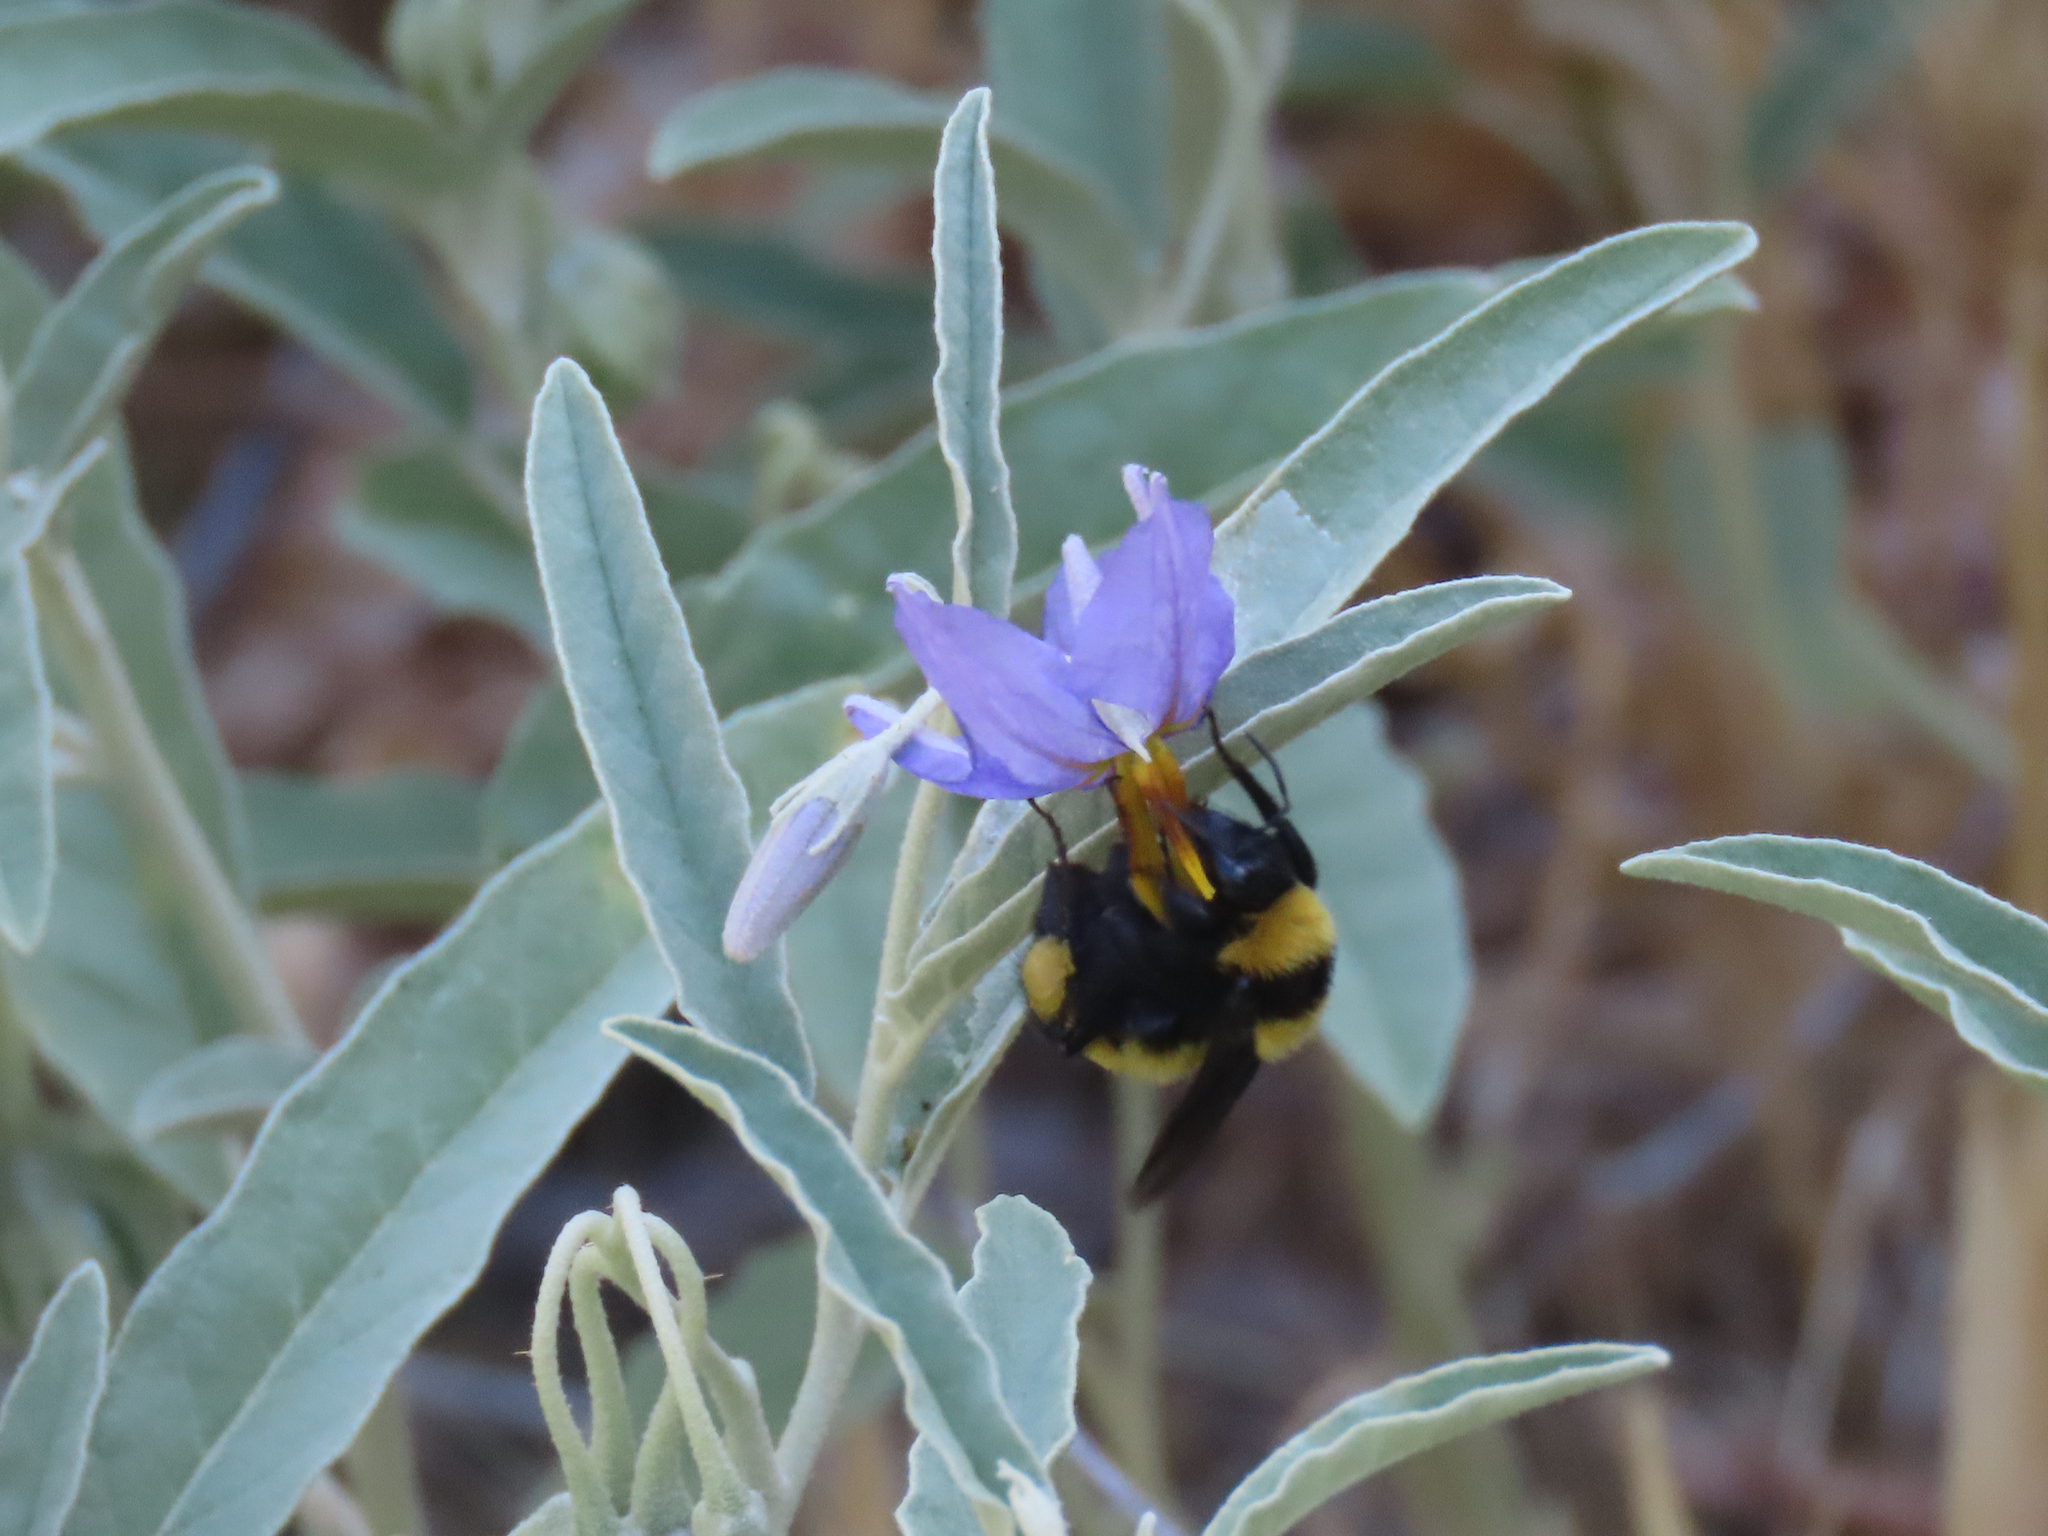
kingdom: Animalia
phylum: Arthropoda
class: Insecta
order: Hymenoptera
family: Apidae
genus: Bombus
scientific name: Bombus sonorus
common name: Sonoran bumble bee
